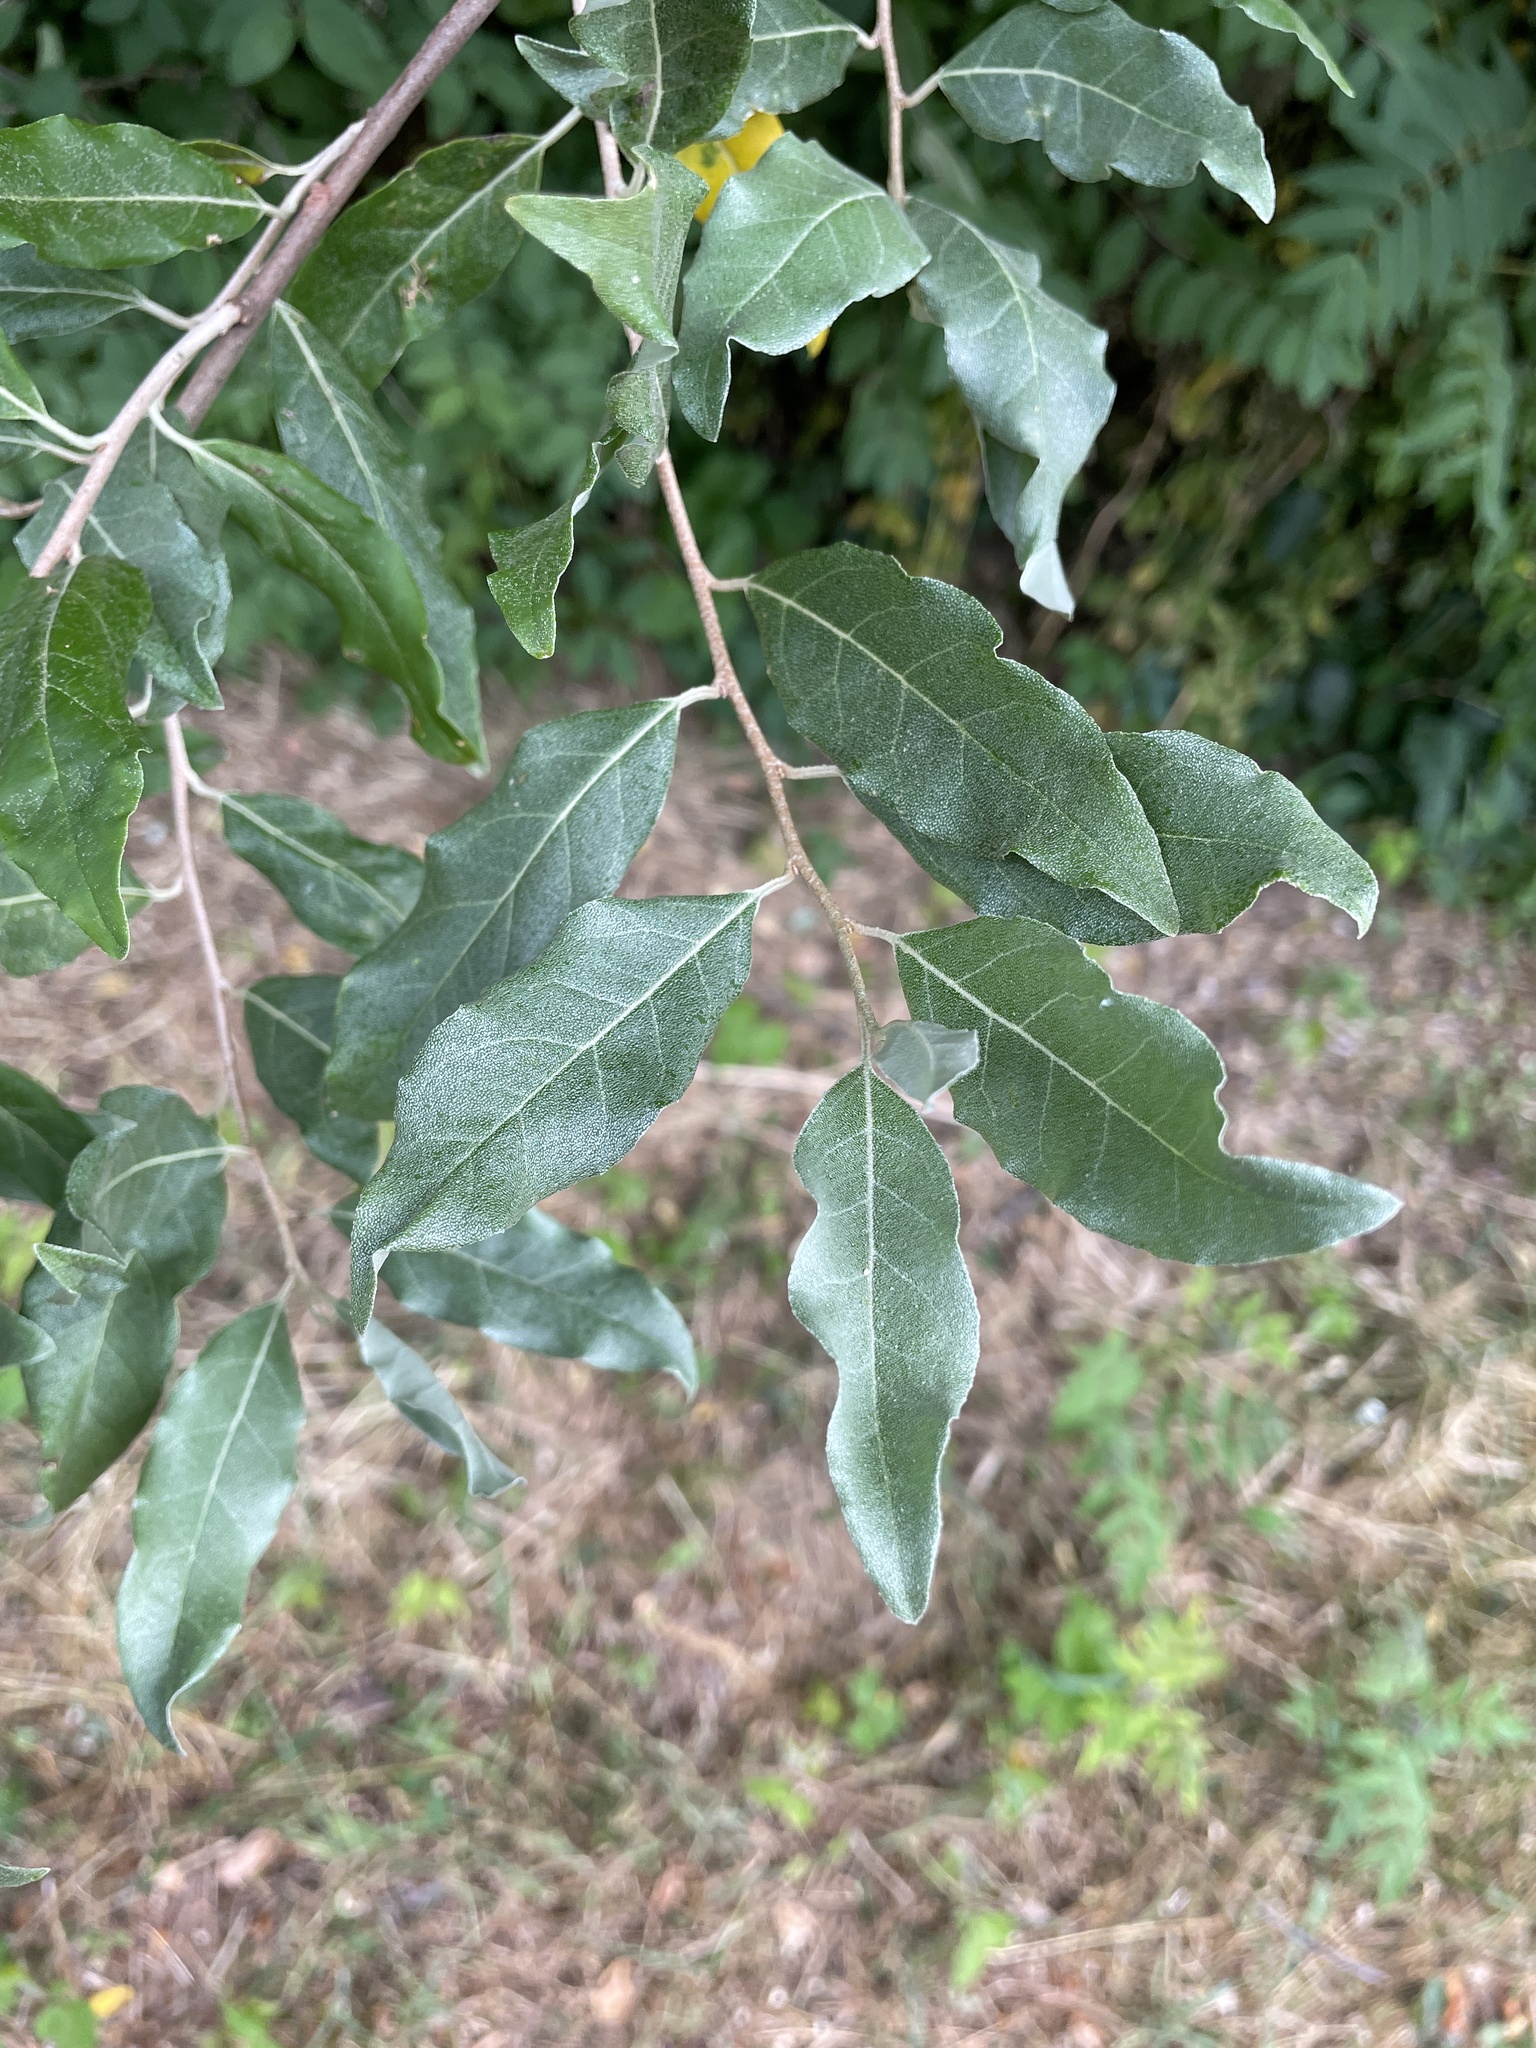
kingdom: Plantae
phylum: Tracheophyta
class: Magnoliopsida
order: Rosales
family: Elaeagnaceae
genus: Elaeagnus
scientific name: Elaeagnus umbellata
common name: Autumn olive
